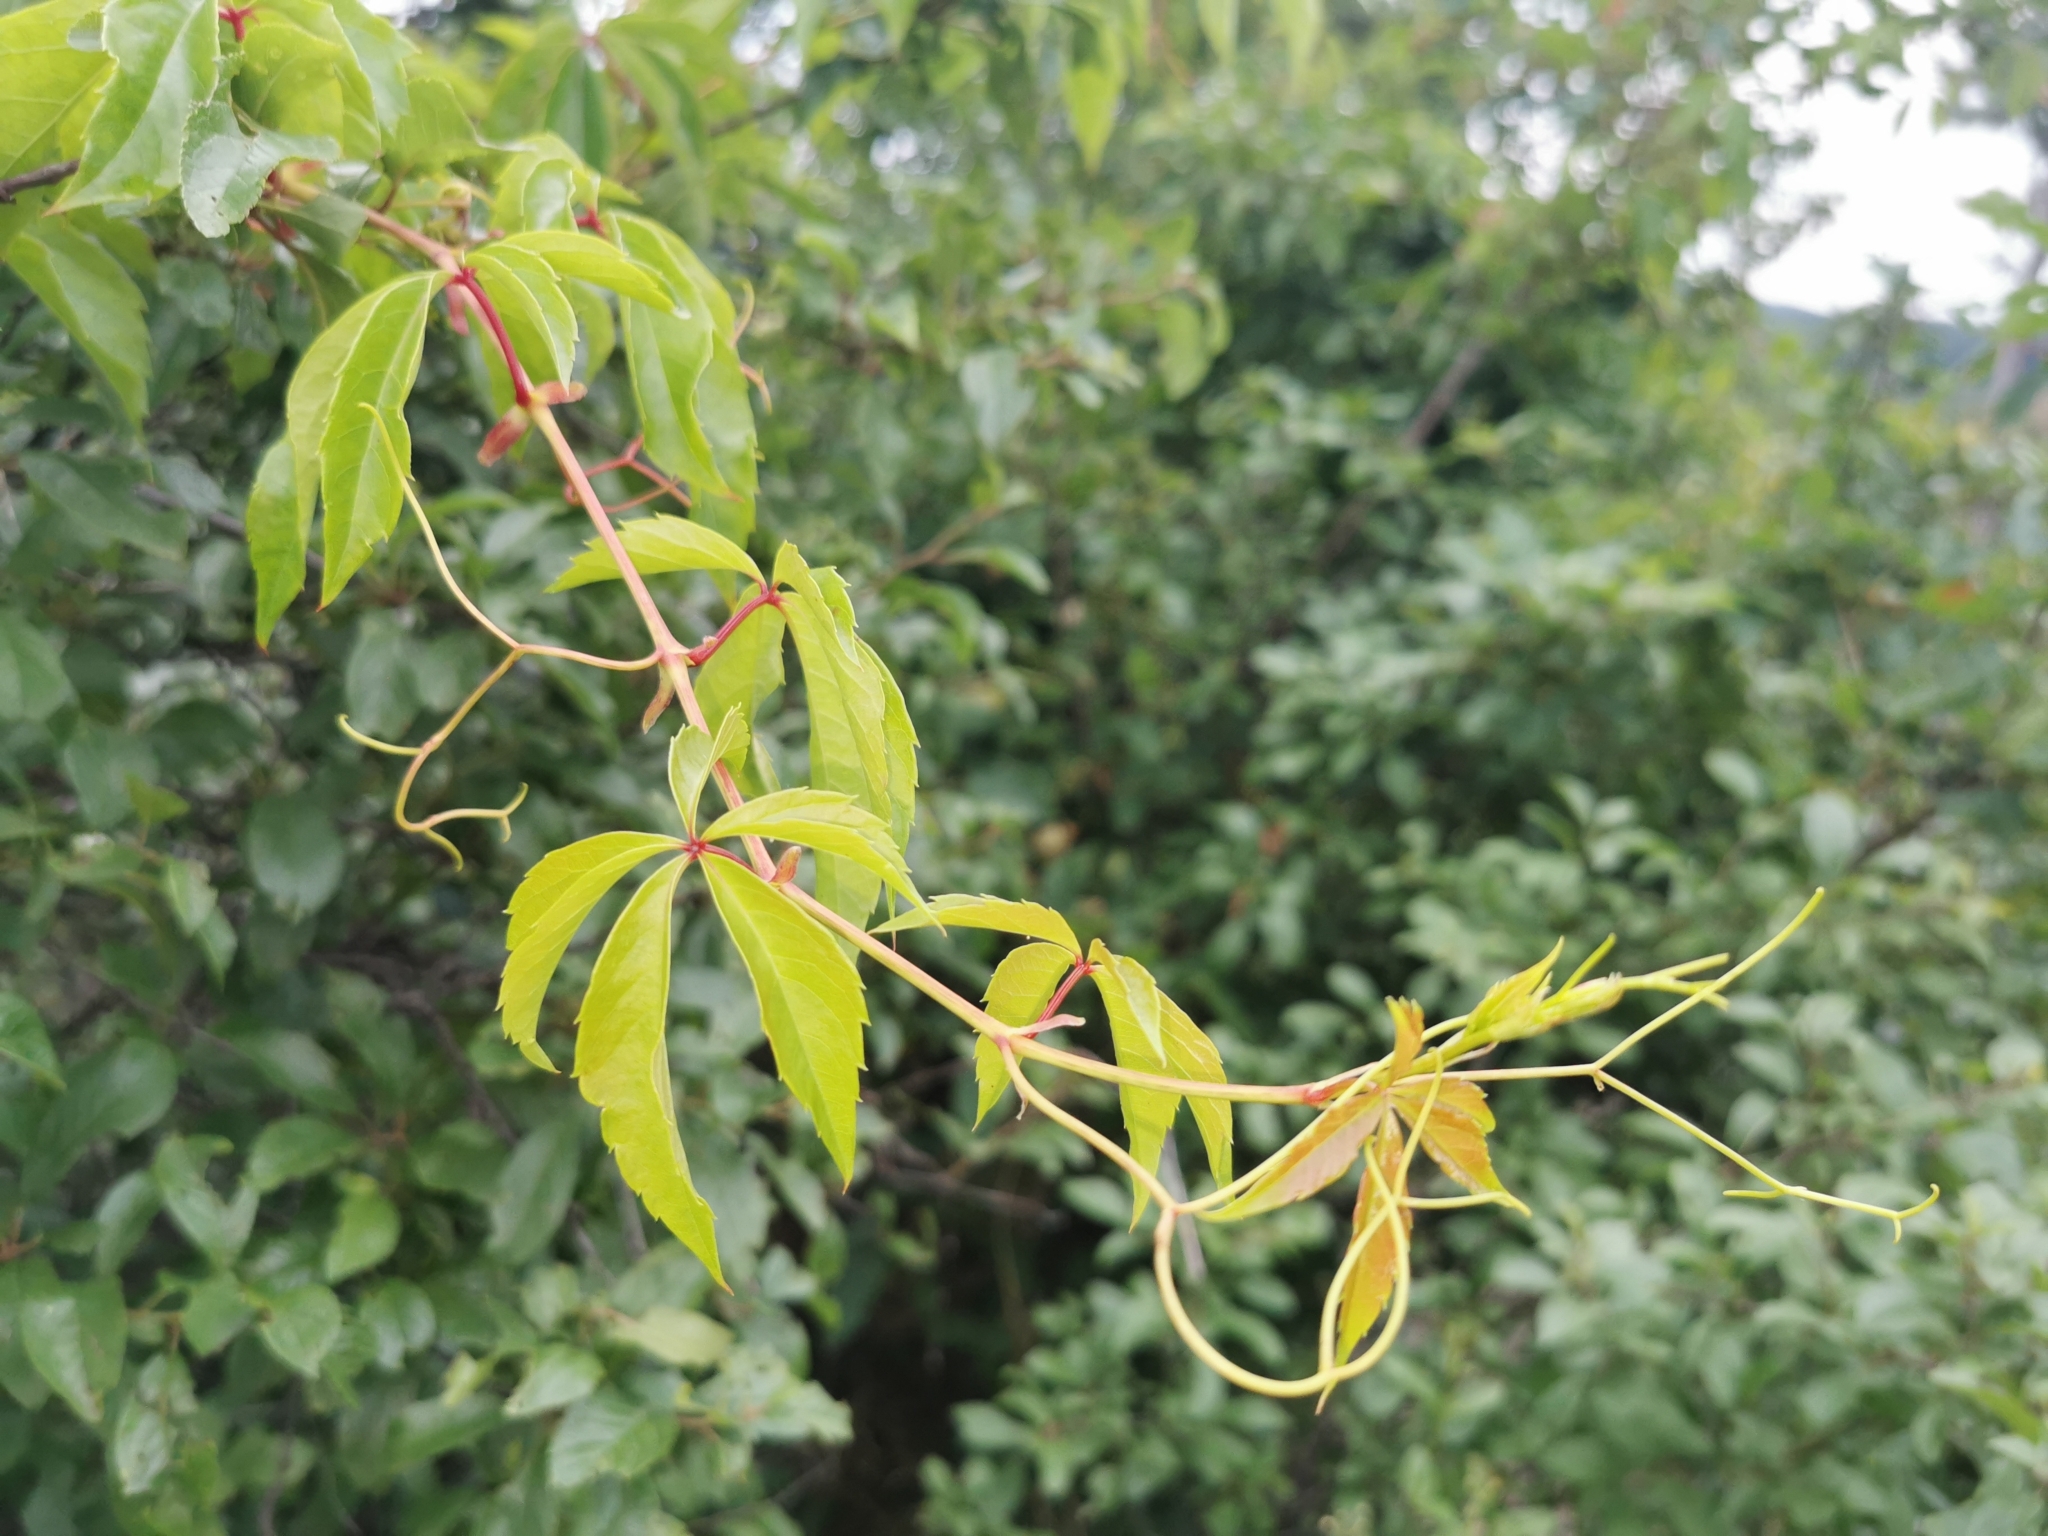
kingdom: Plantae
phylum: Tracheophyta
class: Magnoliopsida
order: Vitales
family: Vitaceae
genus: Parthenocissus
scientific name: Parthenocissus inserta
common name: False virginia-creeper
